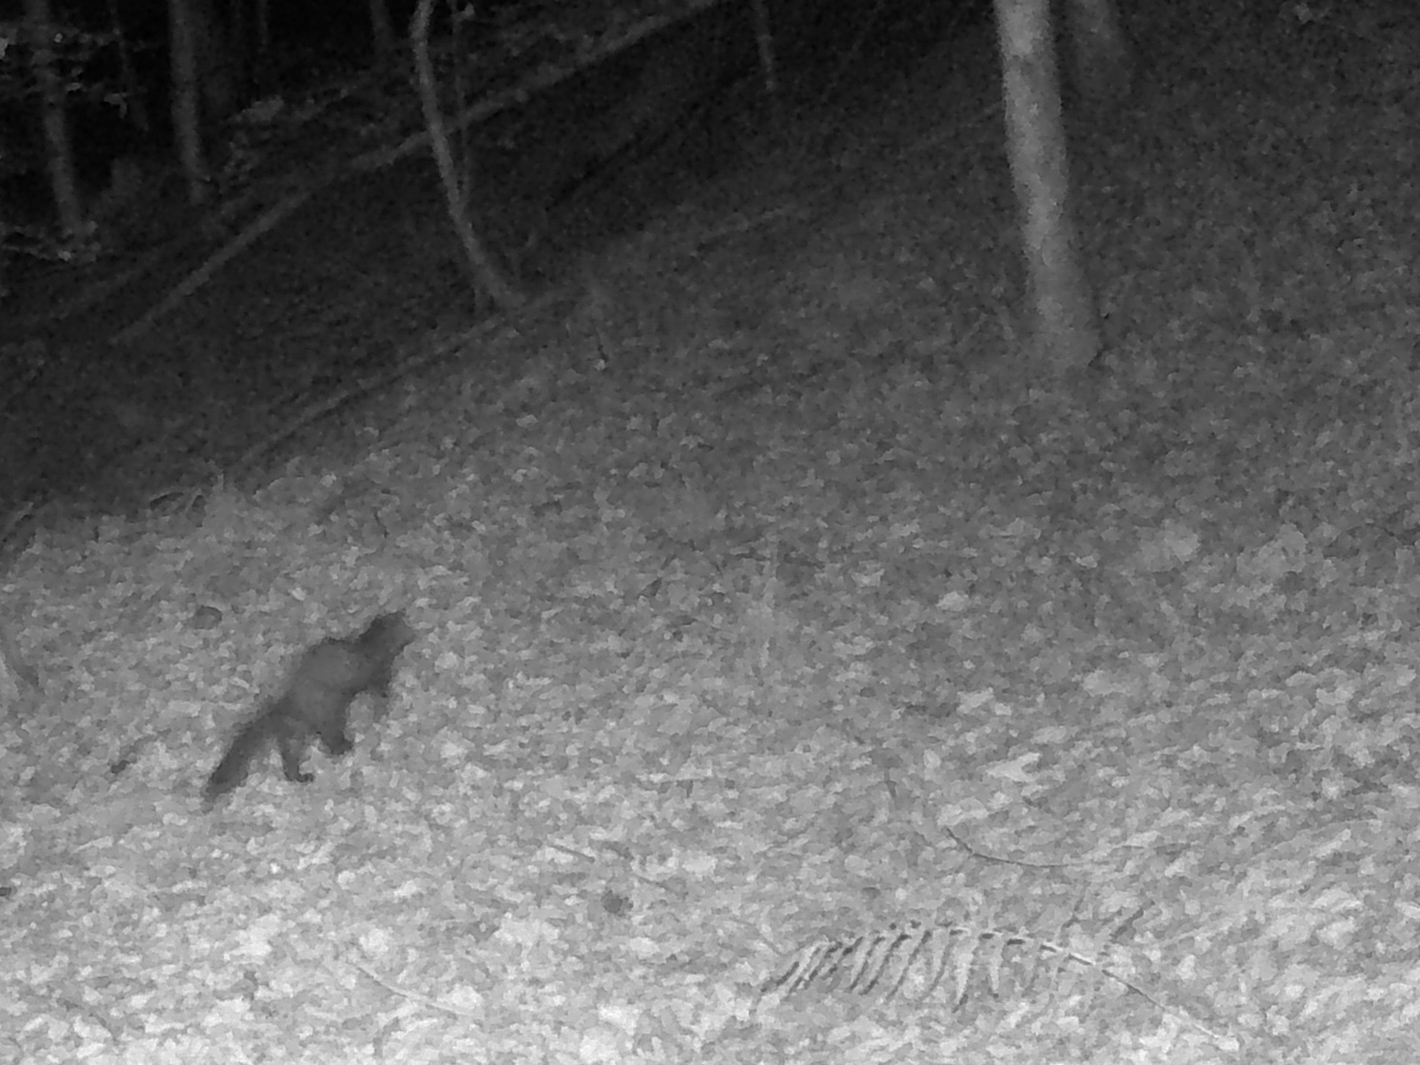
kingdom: Animalia
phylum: Chordata
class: Mammalia
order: Carnivora
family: Mustelidae
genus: Martes
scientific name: Martes martes
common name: European pine marten
